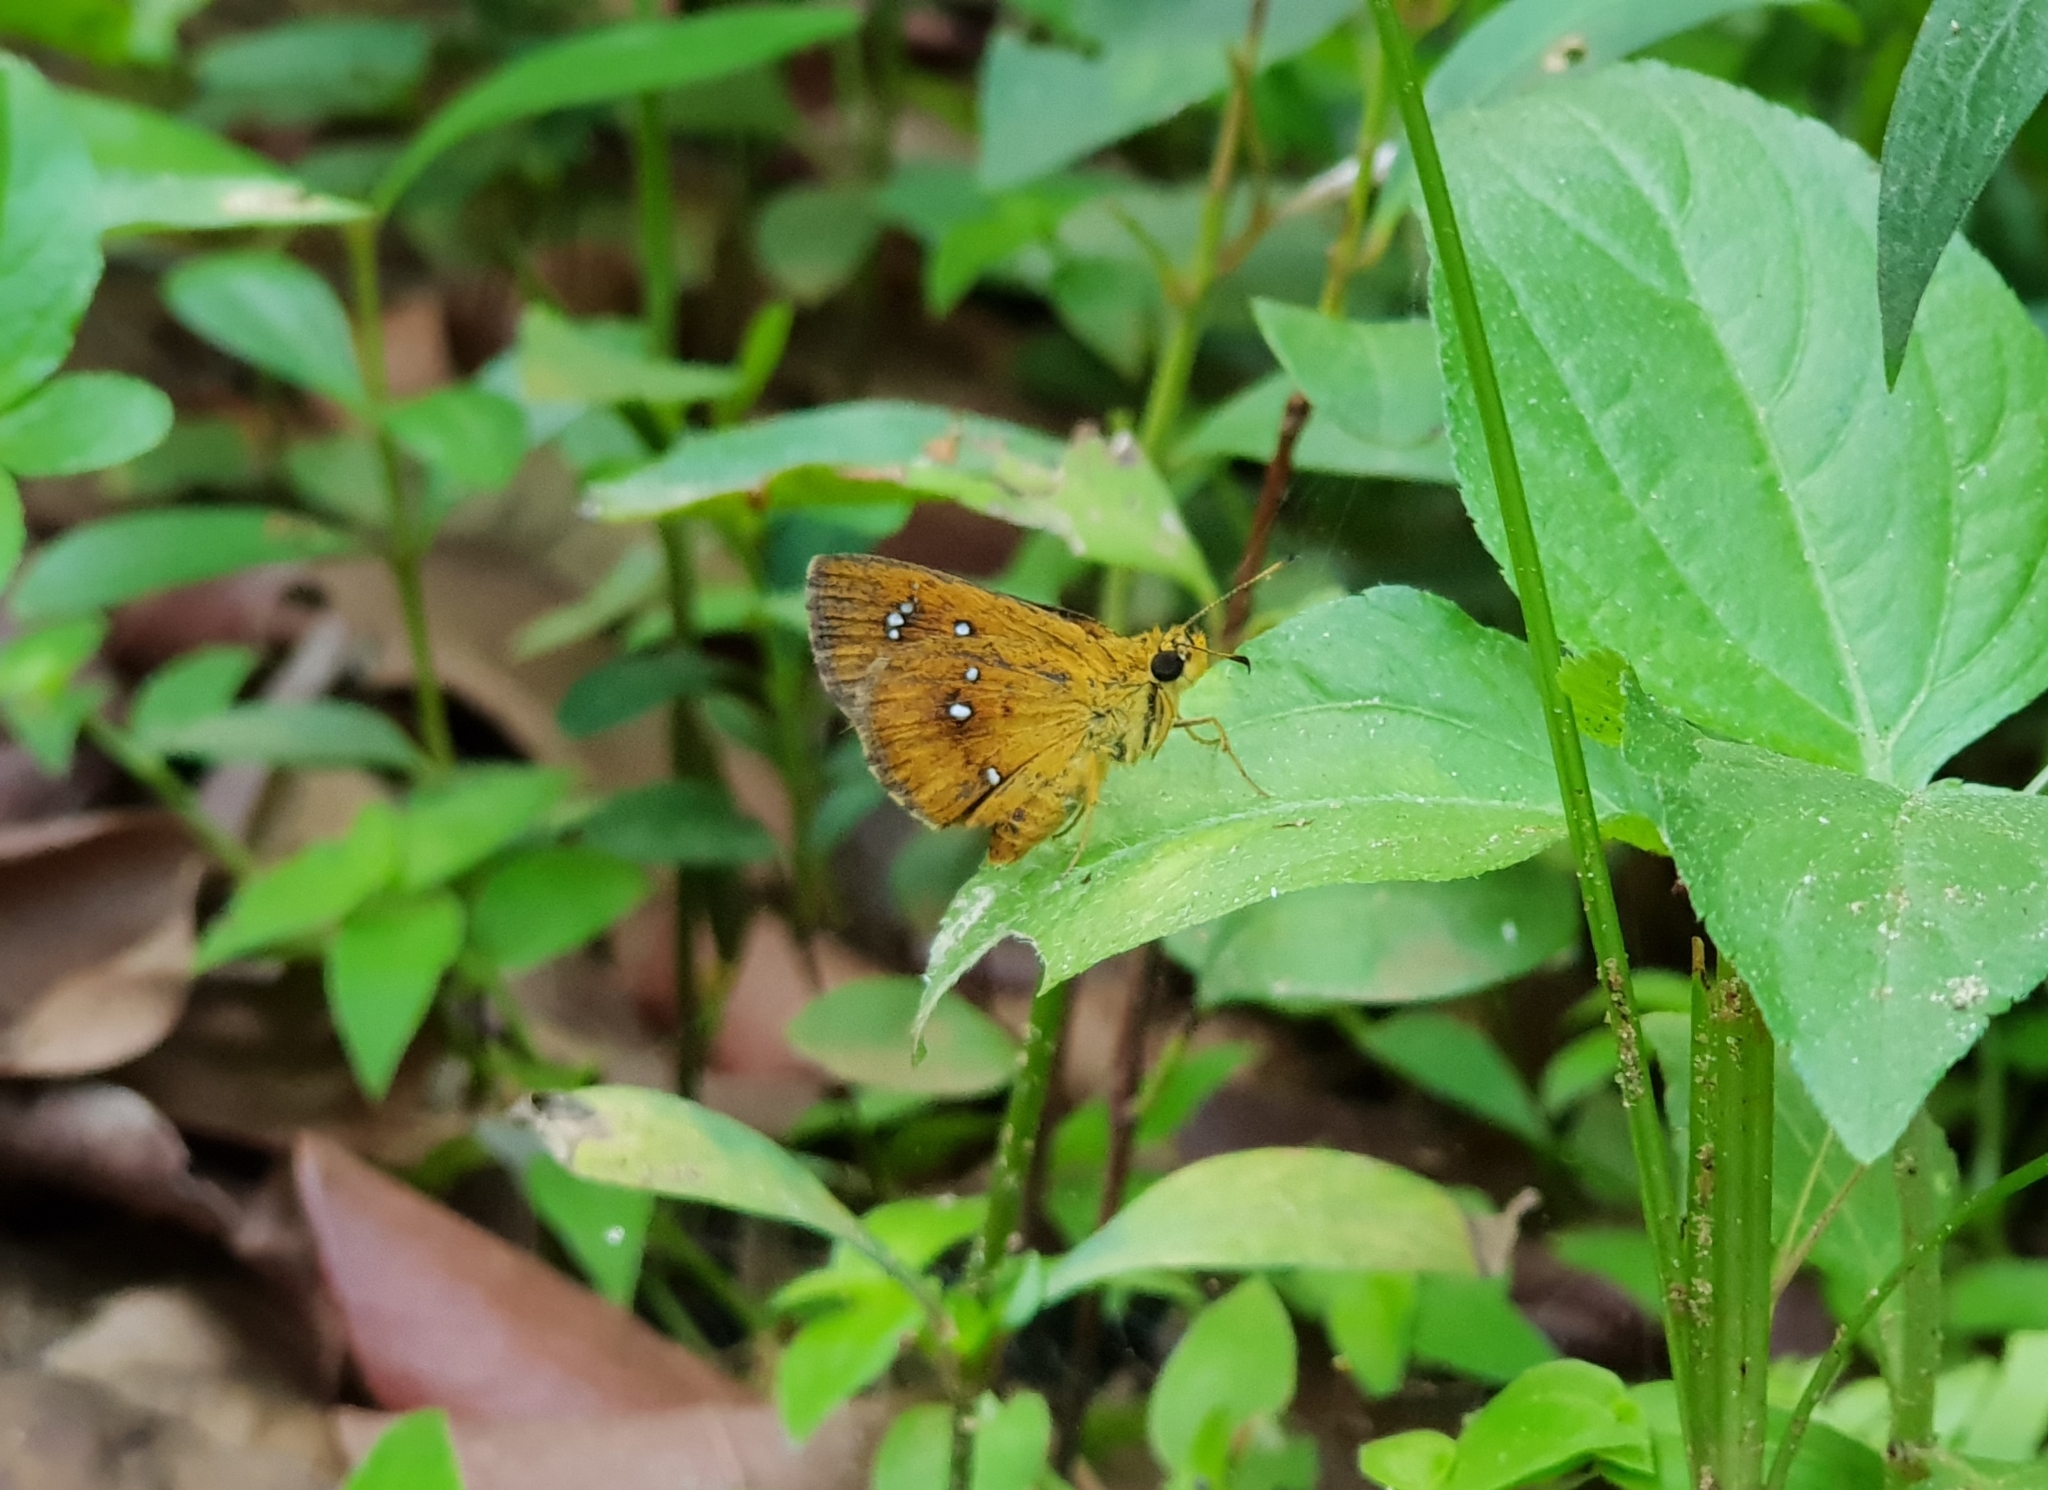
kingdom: Animalia
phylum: Arthropoda
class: Insecta
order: Lepidoptera
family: Hesperiidae
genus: Iambrix
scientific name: Iambrix salsala
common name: Chestnut bob
